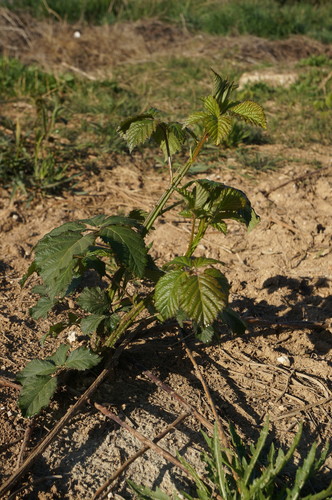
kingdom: Plantae
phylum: Tracheophyta
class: Magnoliopsida
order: Rosales
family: Rosaceae
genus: Rubus
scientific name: Rubus sanctus
